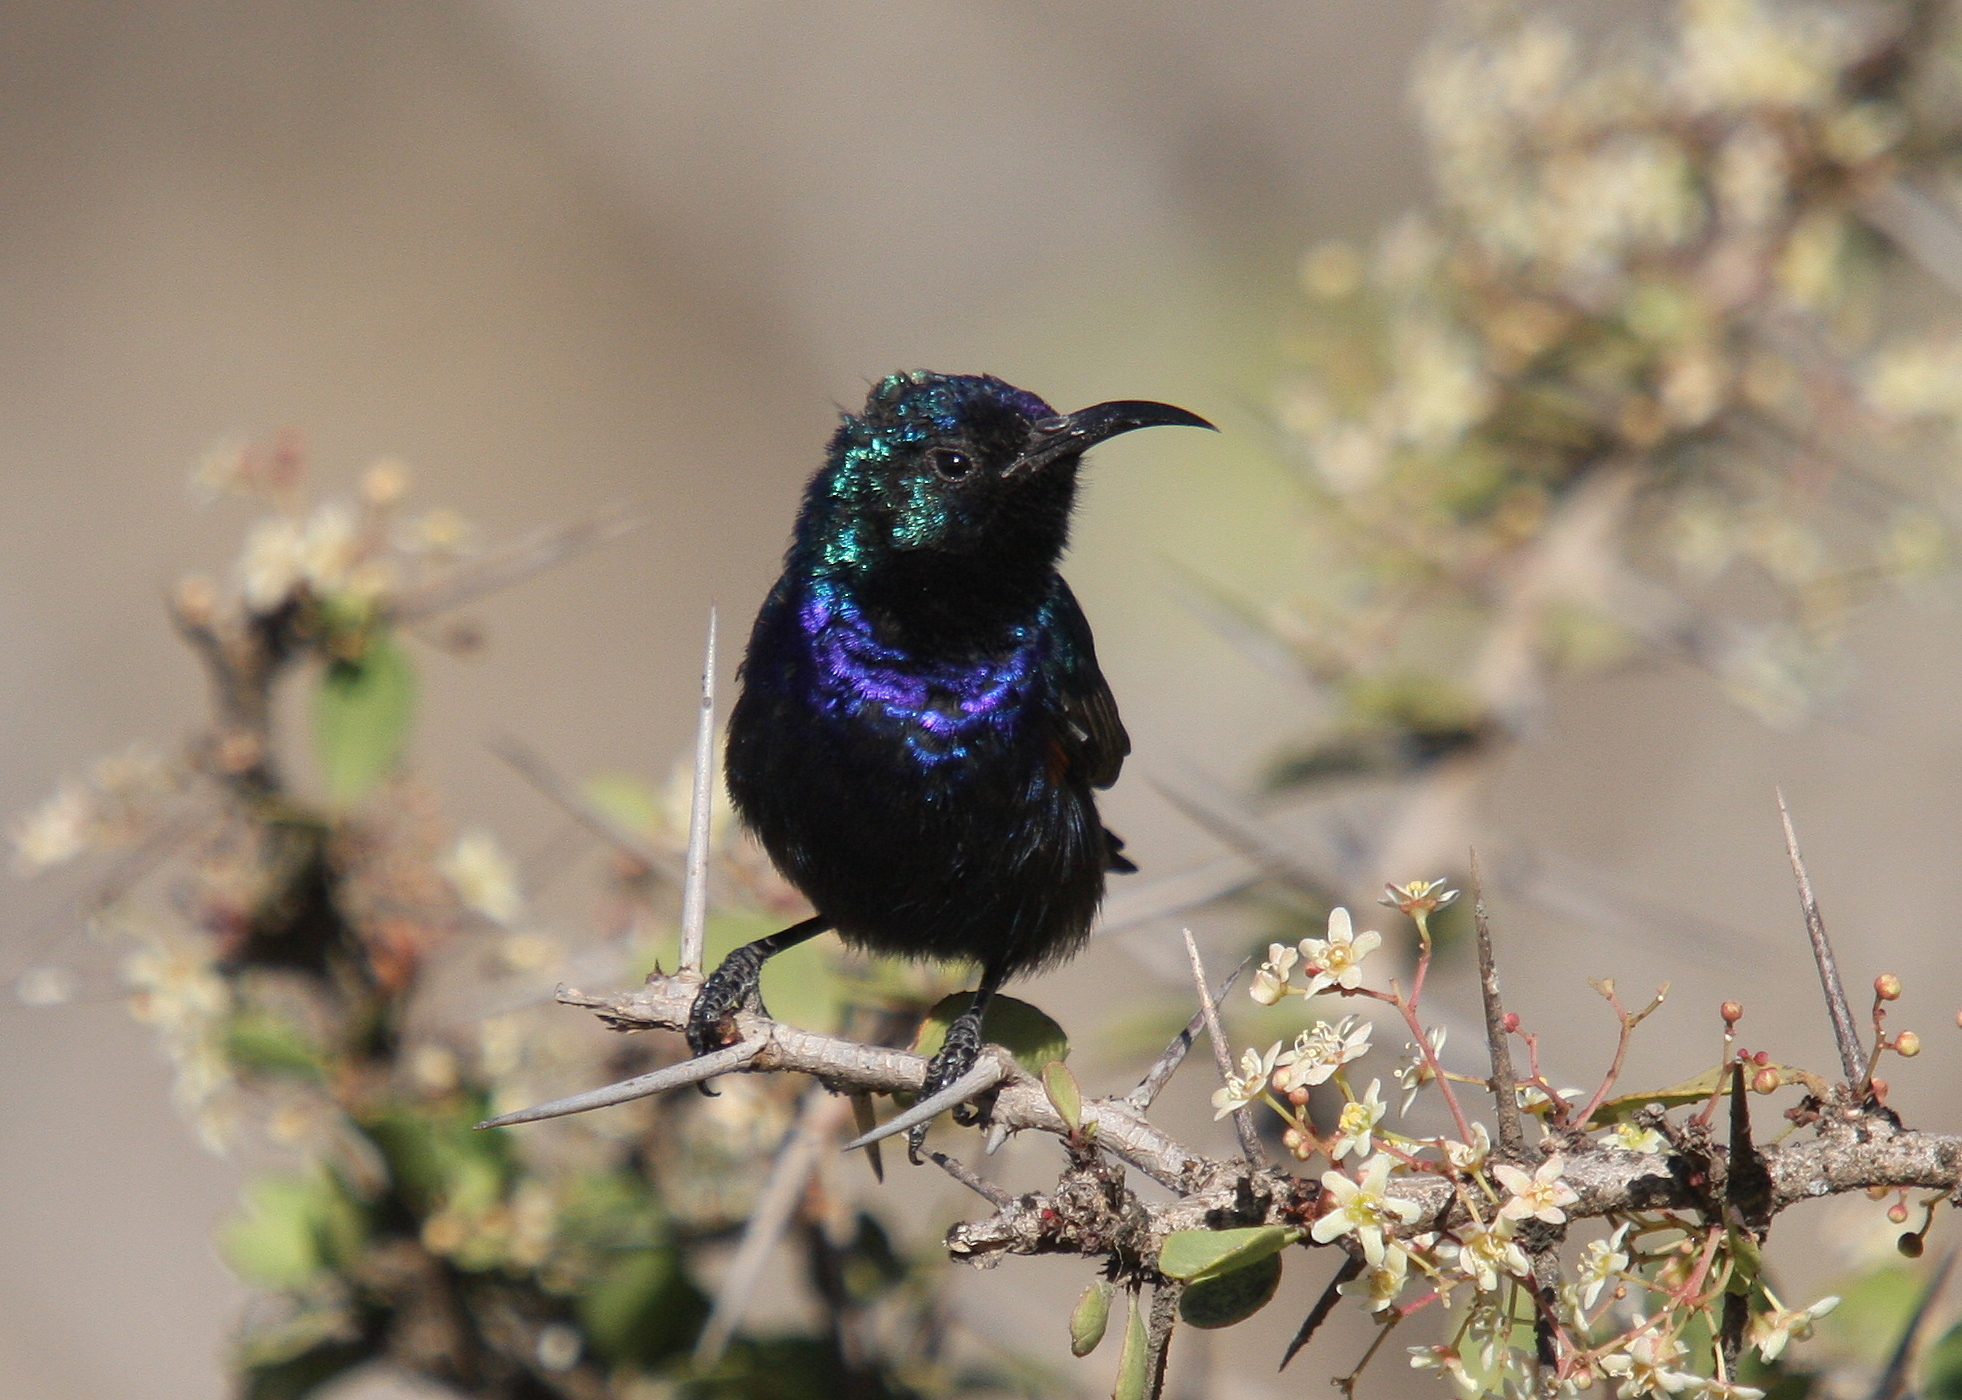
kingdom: Animalia
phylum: Chordata
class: Aves
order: Passeriformes
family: Nectariniidae
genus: Cinnyris
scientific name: Cinnyris osea
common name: Palestine sunbird
